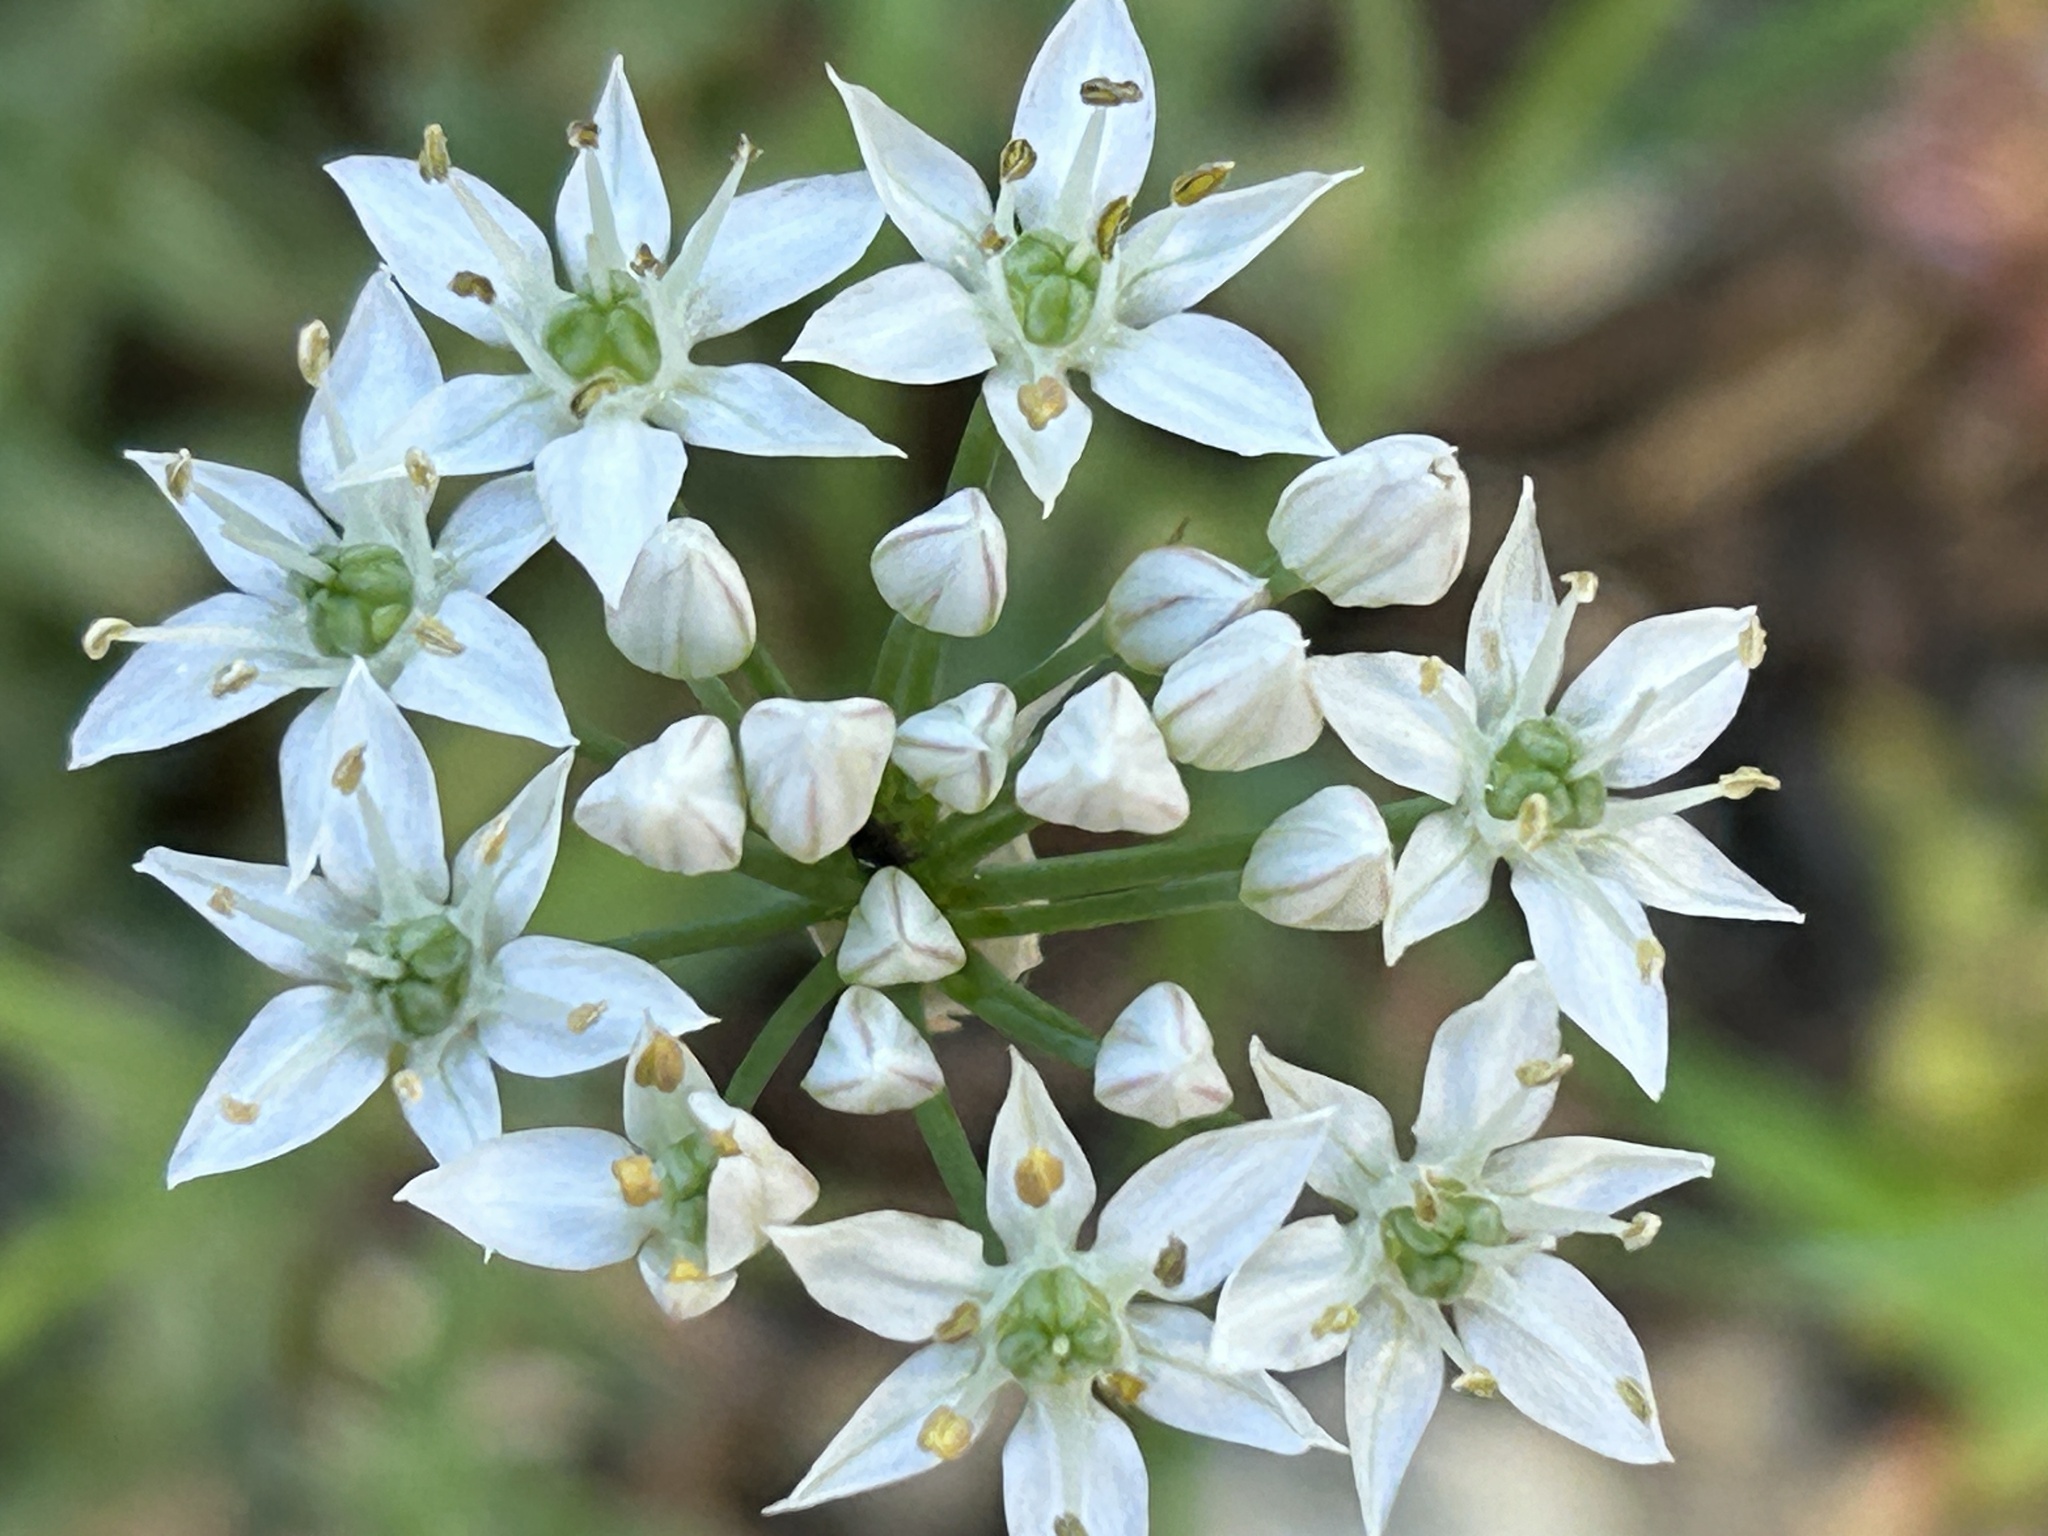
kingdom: Plantae
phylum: Tracheophyta
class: Liliopsida
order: Asparagales
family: Amaryllidaceae
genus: Allium
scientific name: Allium tuberosum
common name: Chinese chives
